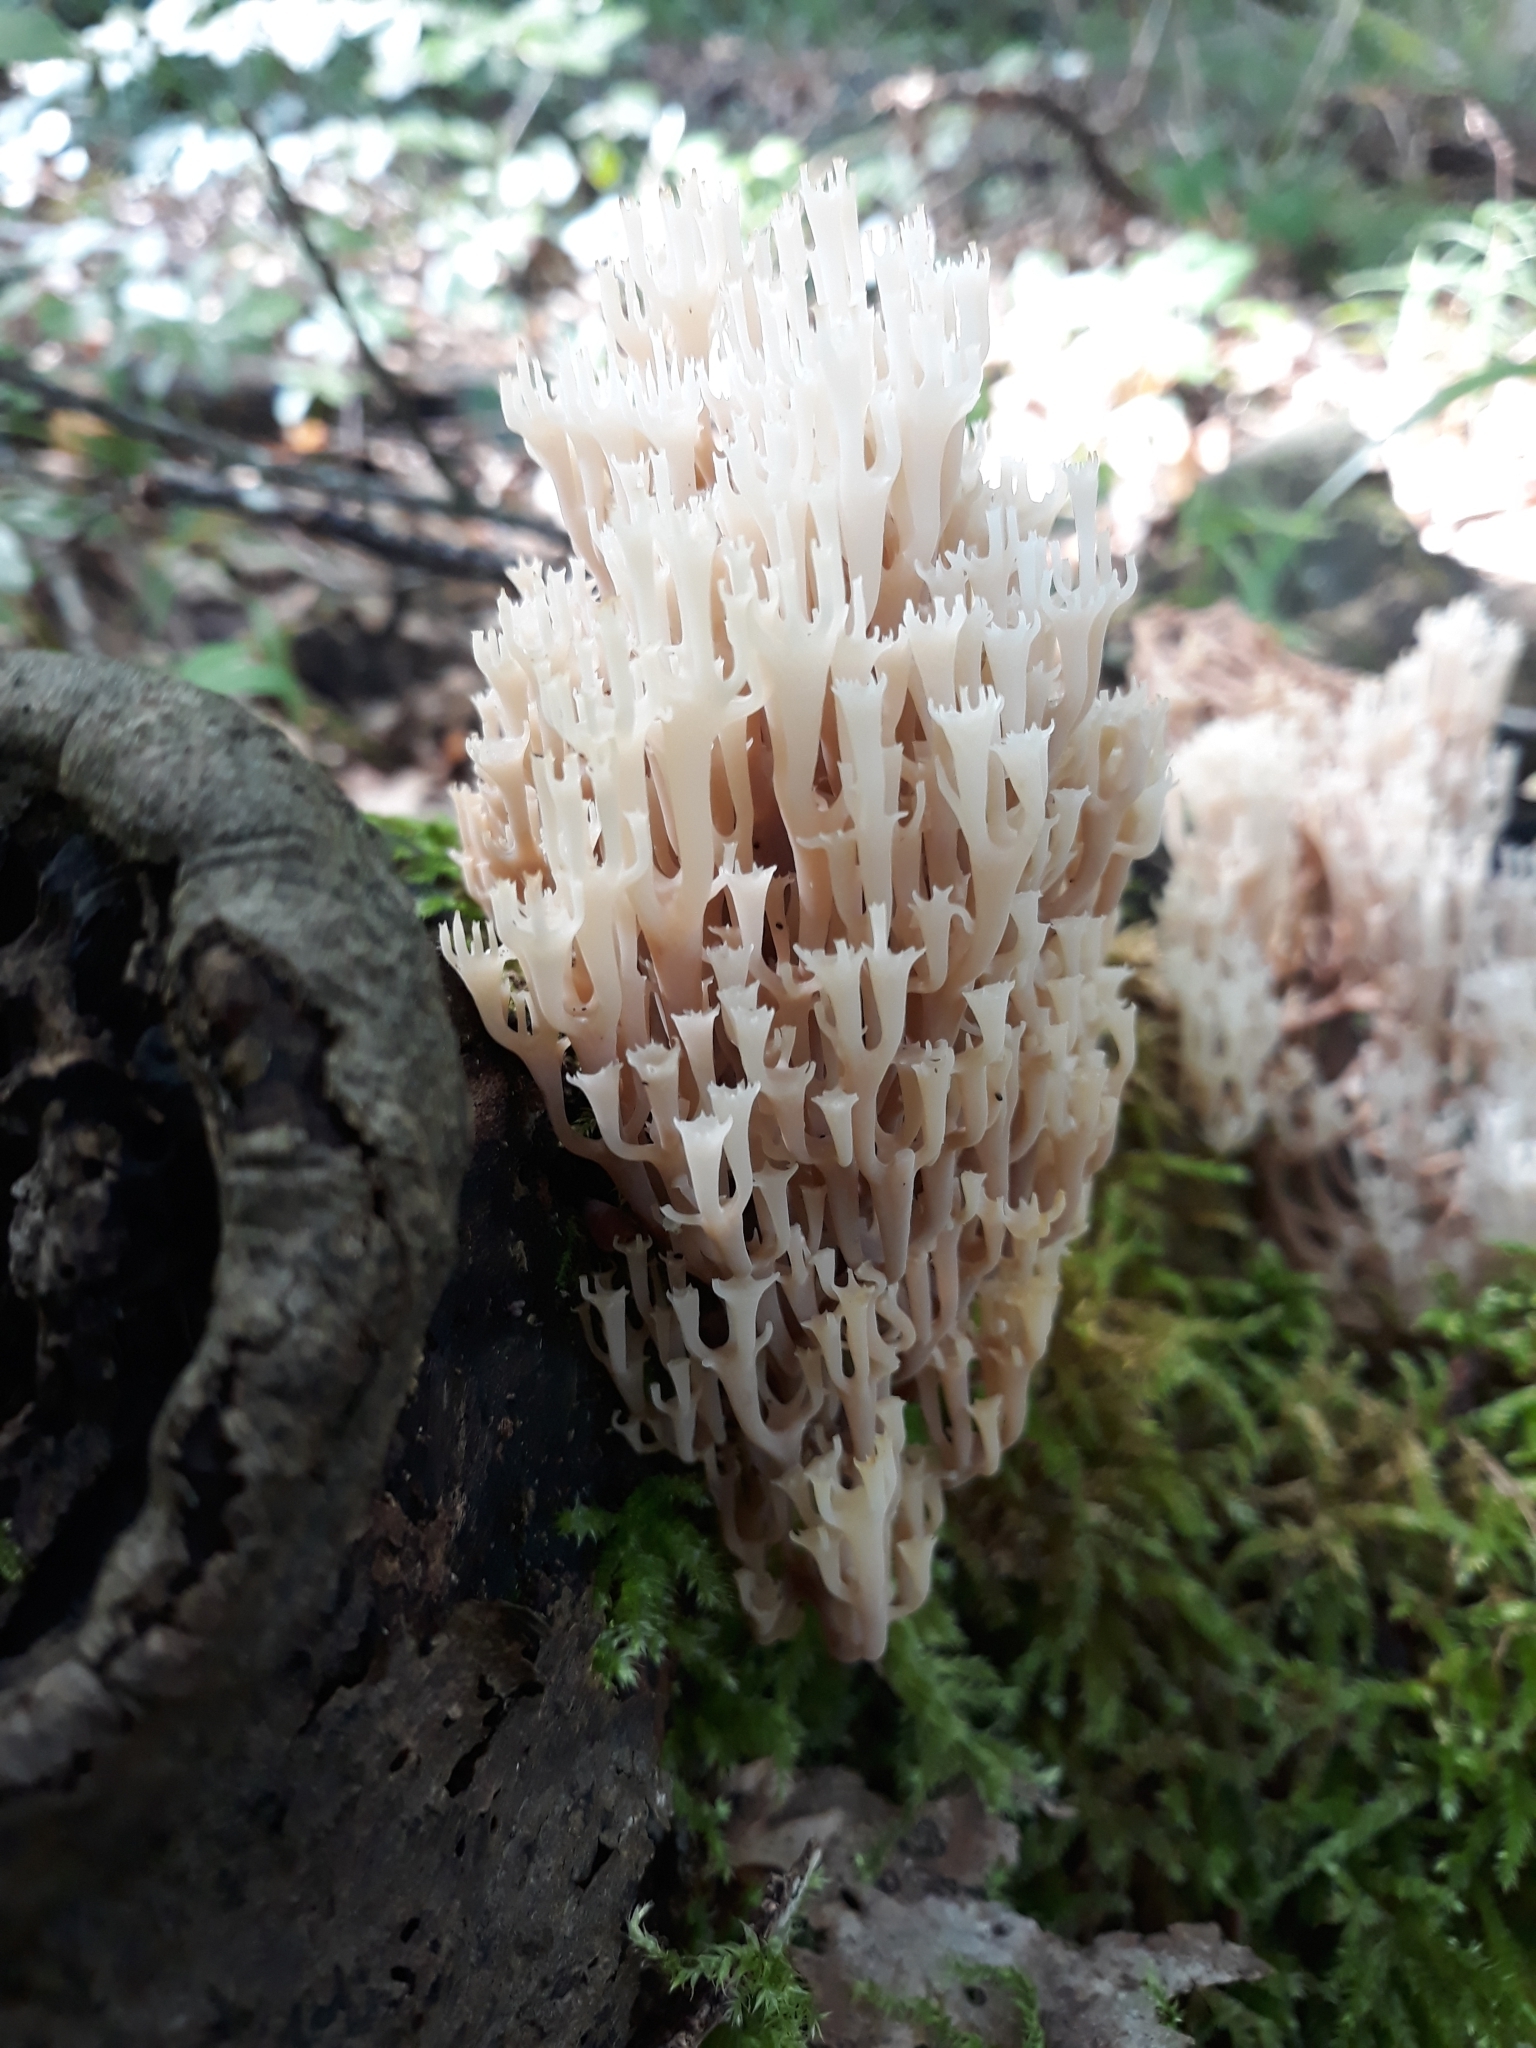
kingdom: Fungi
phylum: Basidiomycota
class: Agaricomycetes
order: Russulales
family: Auriscalpiaceae
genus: Artomyces
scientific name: Artomyces pyxidatus
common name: Crown-tipped coral fungus
